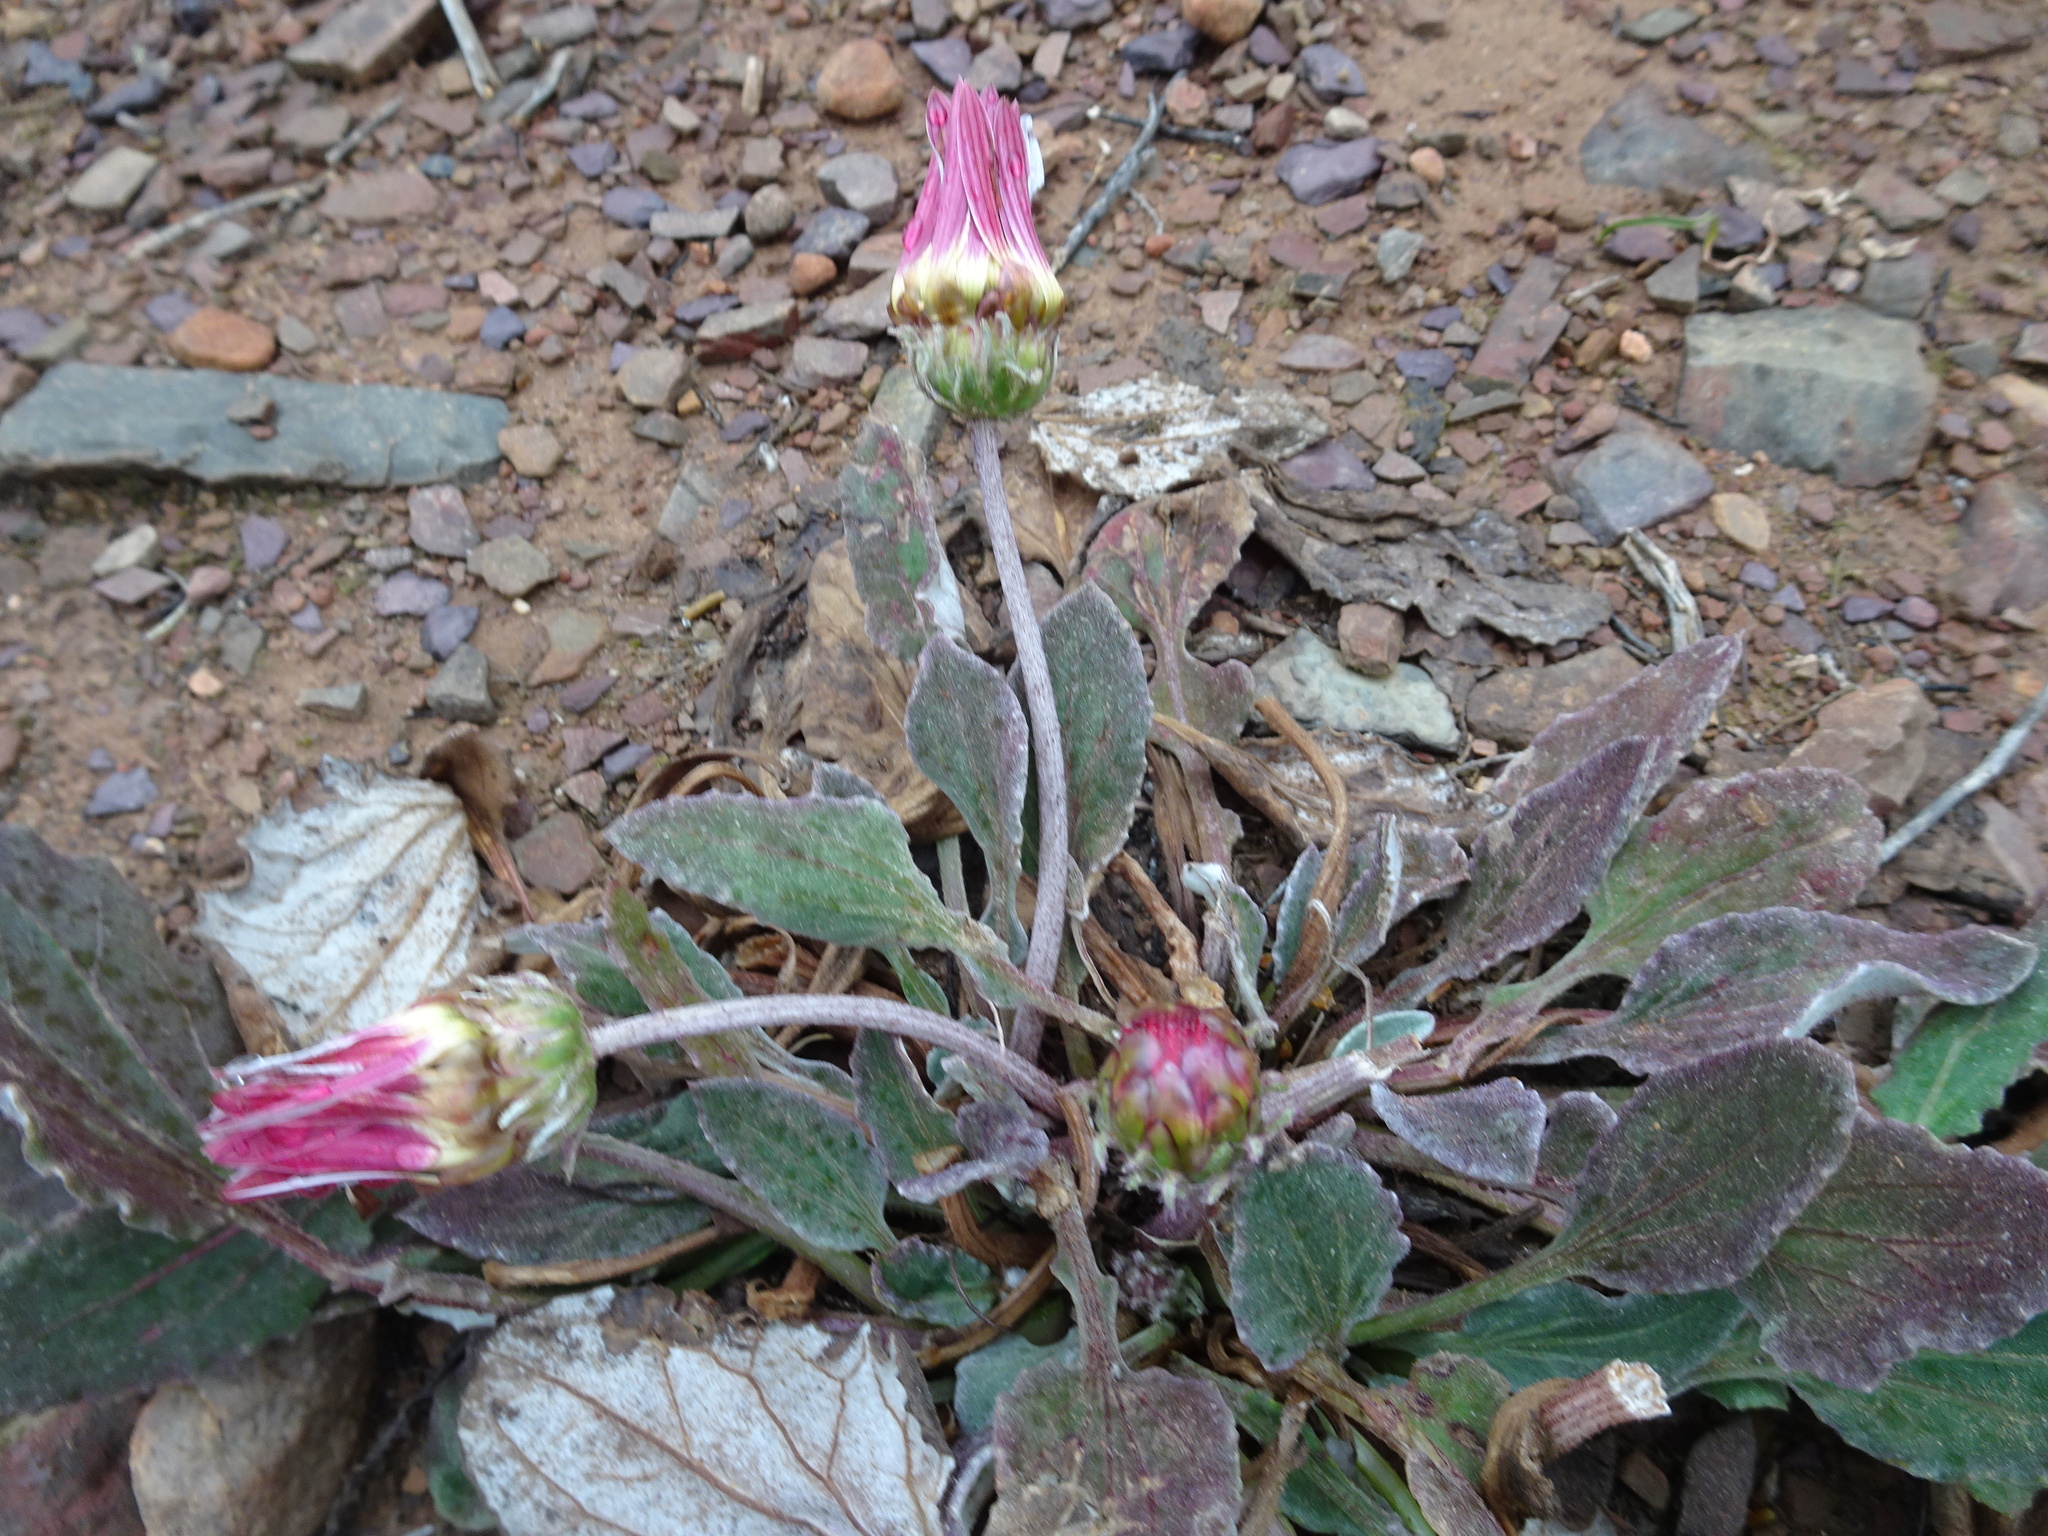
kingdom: Plantae
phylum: Tracheophyta
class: Magnoliopsida
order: Asterales
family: Asteraceae
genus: Arctotis
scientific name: Arctotis acaulis
